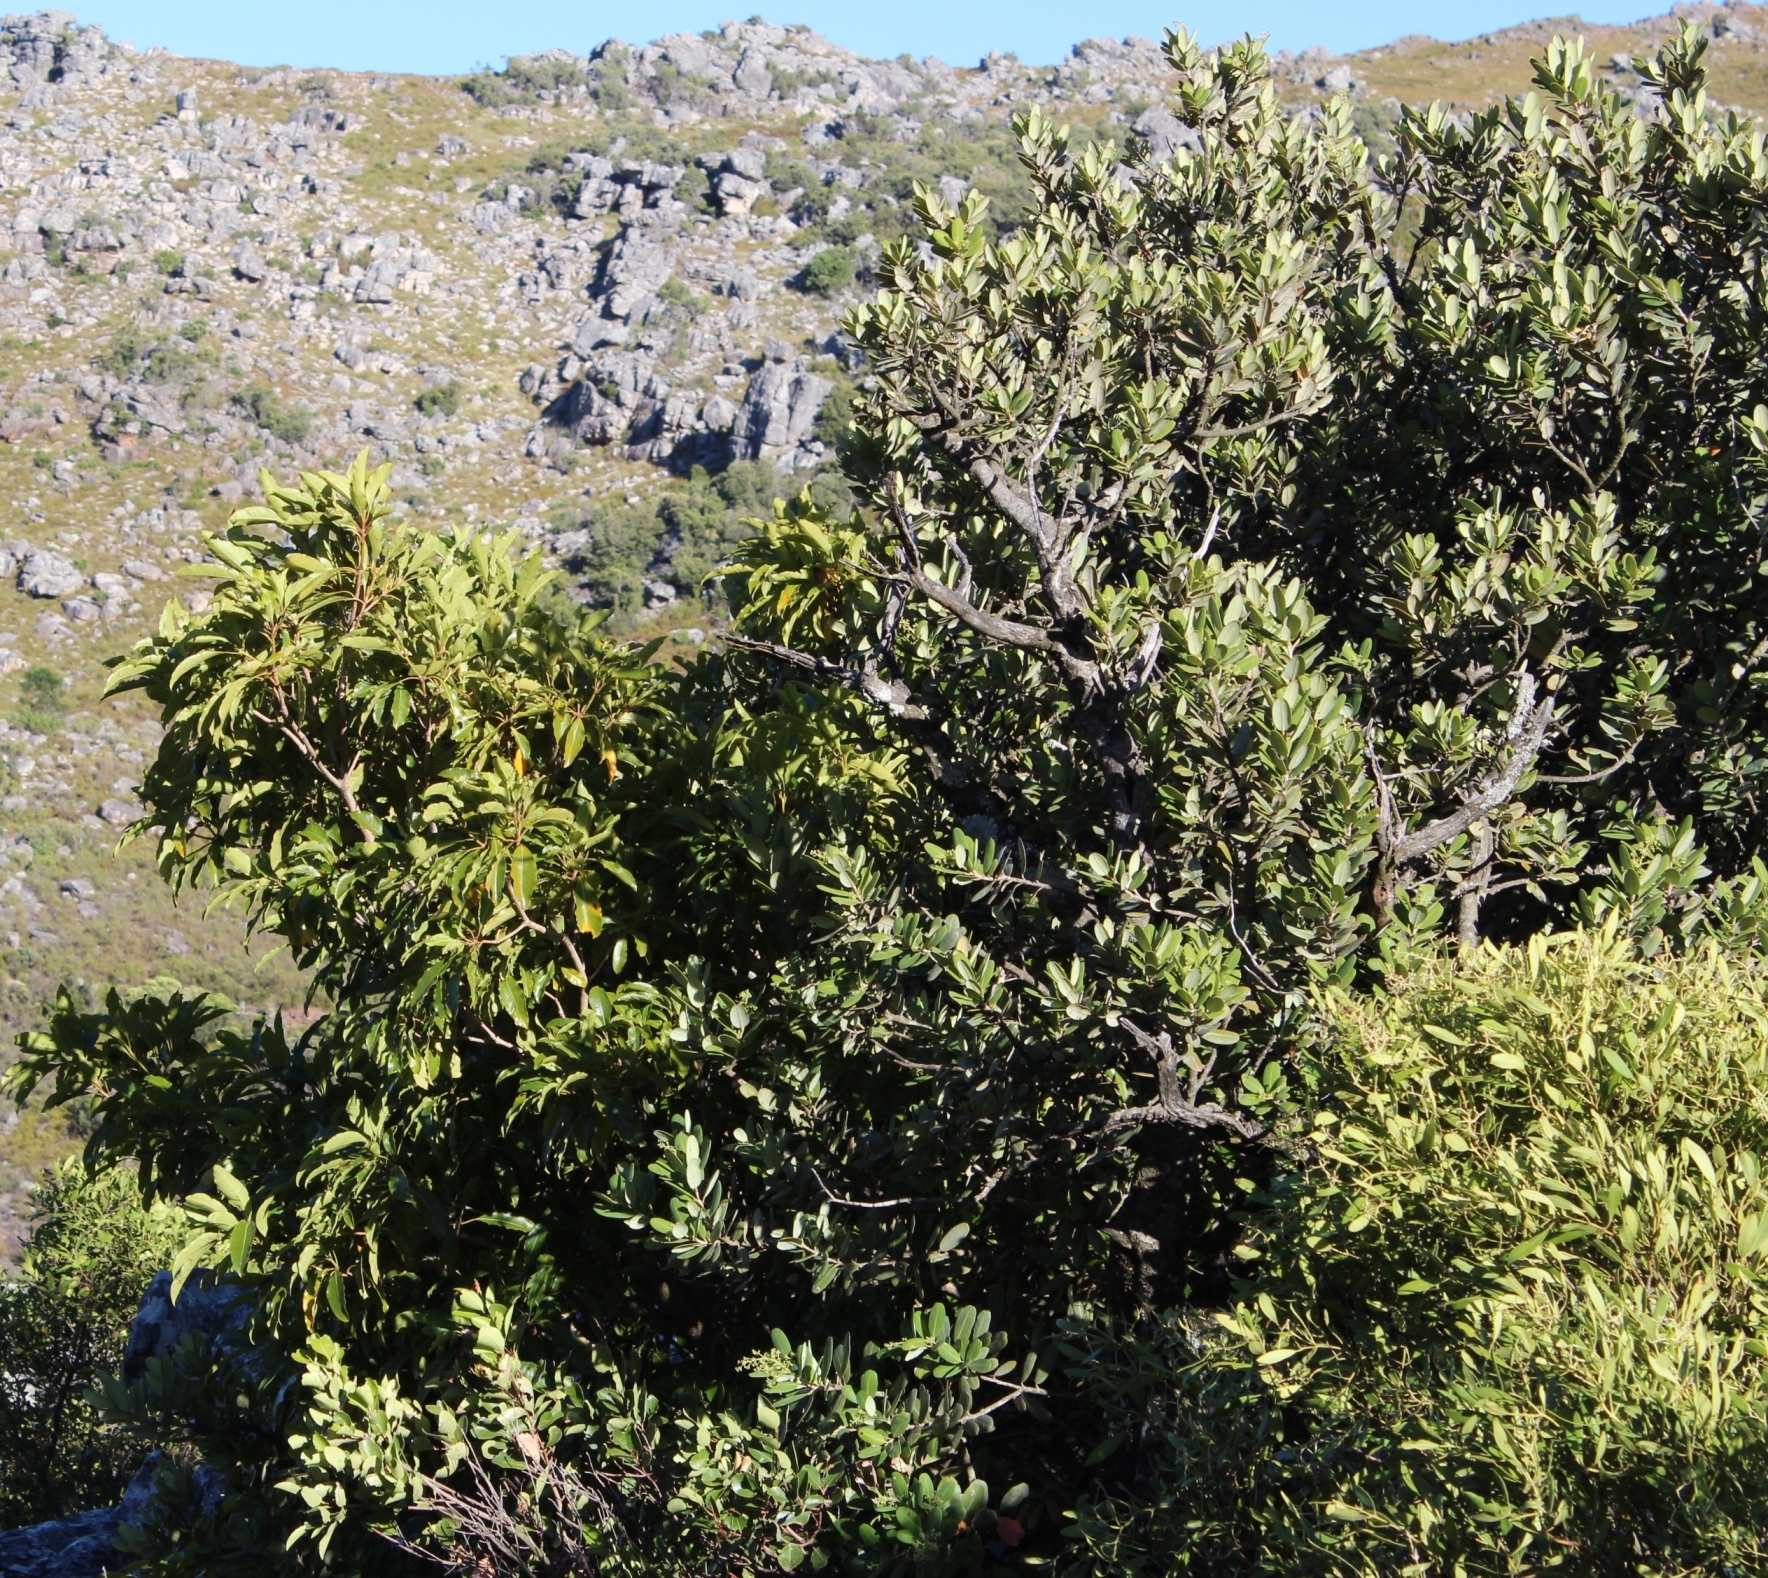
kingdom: Plantae
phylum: Tracheophyta
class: Magnoliopsida
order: Apiales
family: Pittosporaceae
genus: Pittosporum
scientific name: Pittosporum undulatum
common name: Australian cheesewood
